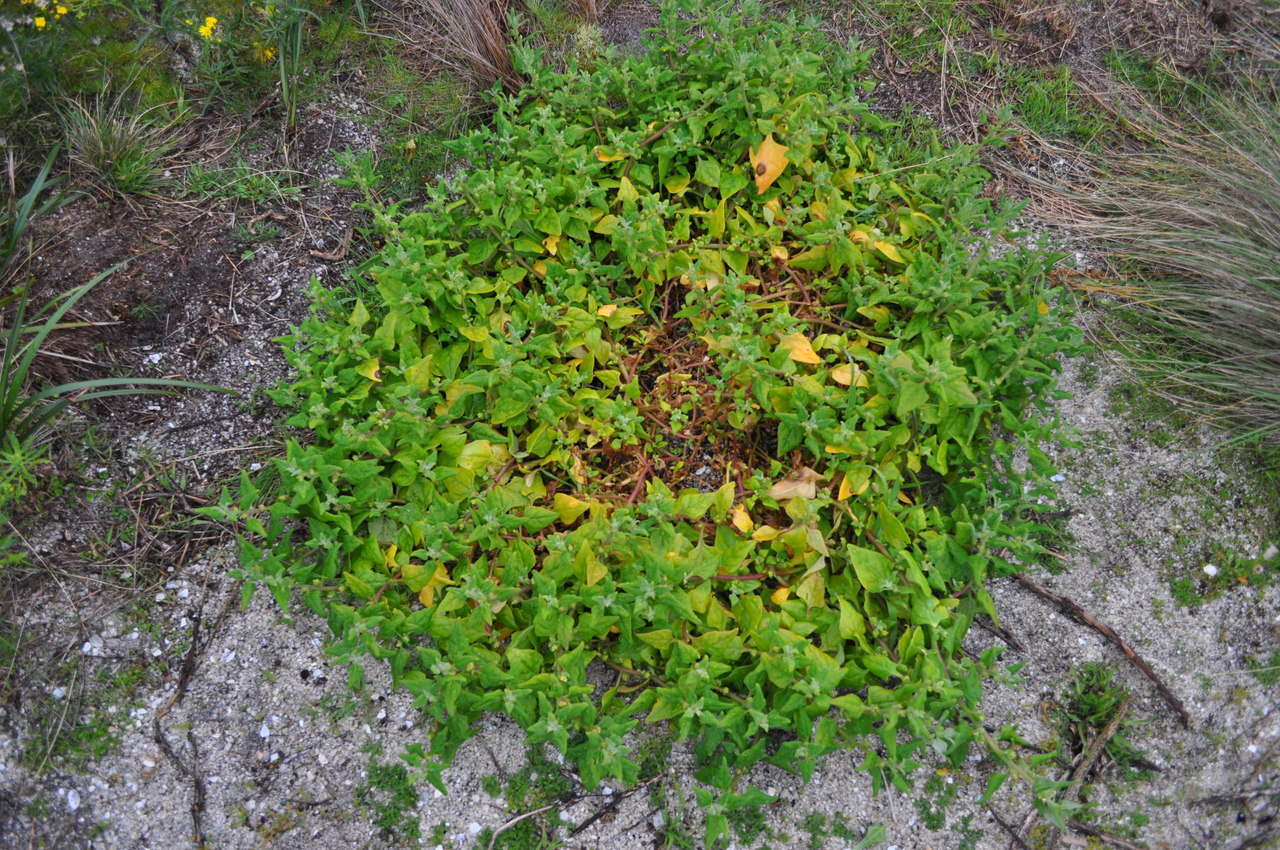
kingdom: Plantae
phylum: Tracheophyta
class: Magnoliopsida
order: Caryophyllales
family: Aizoaceae
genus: Tetragonia
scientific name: Tetragonia tetragonoides
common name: New zealand-spinach
